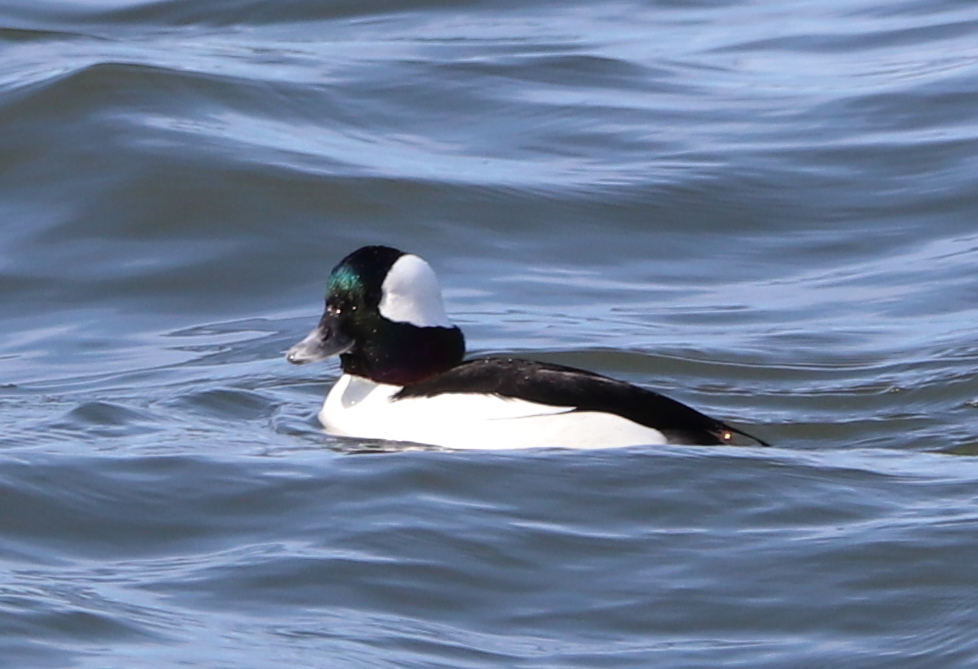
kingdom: Animalia
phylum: Chordata
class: Aves
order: Anseriformes
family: Anatidae
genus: Bucephala
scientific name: Bucephala albeola
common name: Bufflehead
